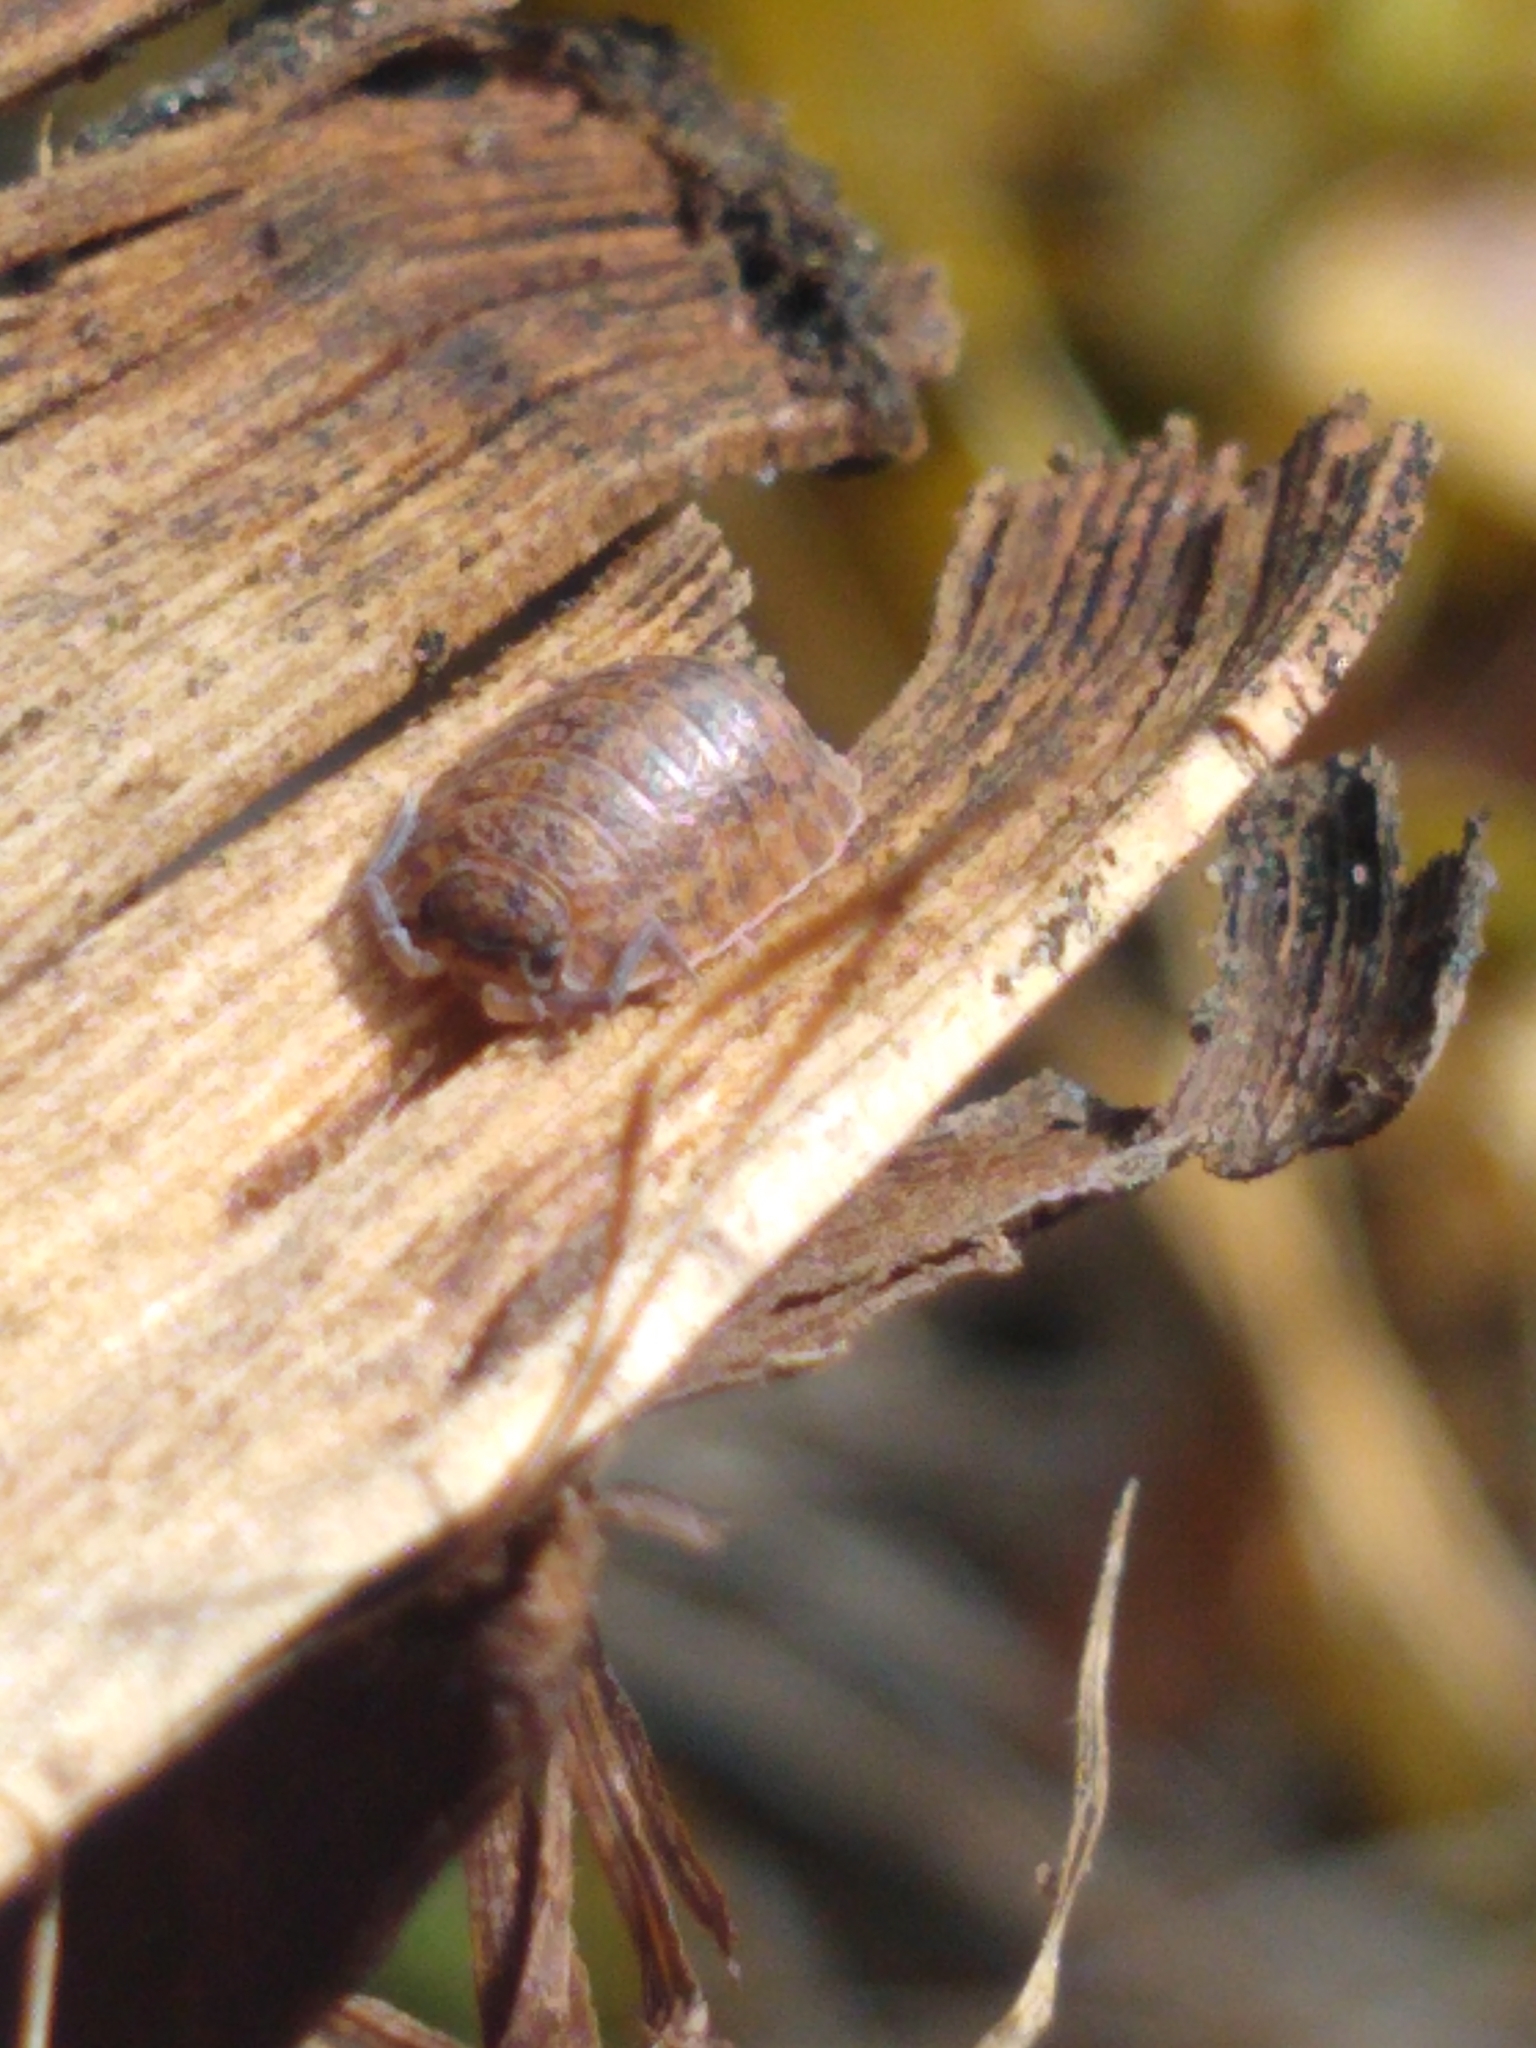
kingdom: Animalia
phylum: Arthropoda
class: Malacostraca
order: Isopoda
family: Trachelipodidae
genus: Trachelipus
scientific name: Trachelipus rathkii
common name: Isopod
